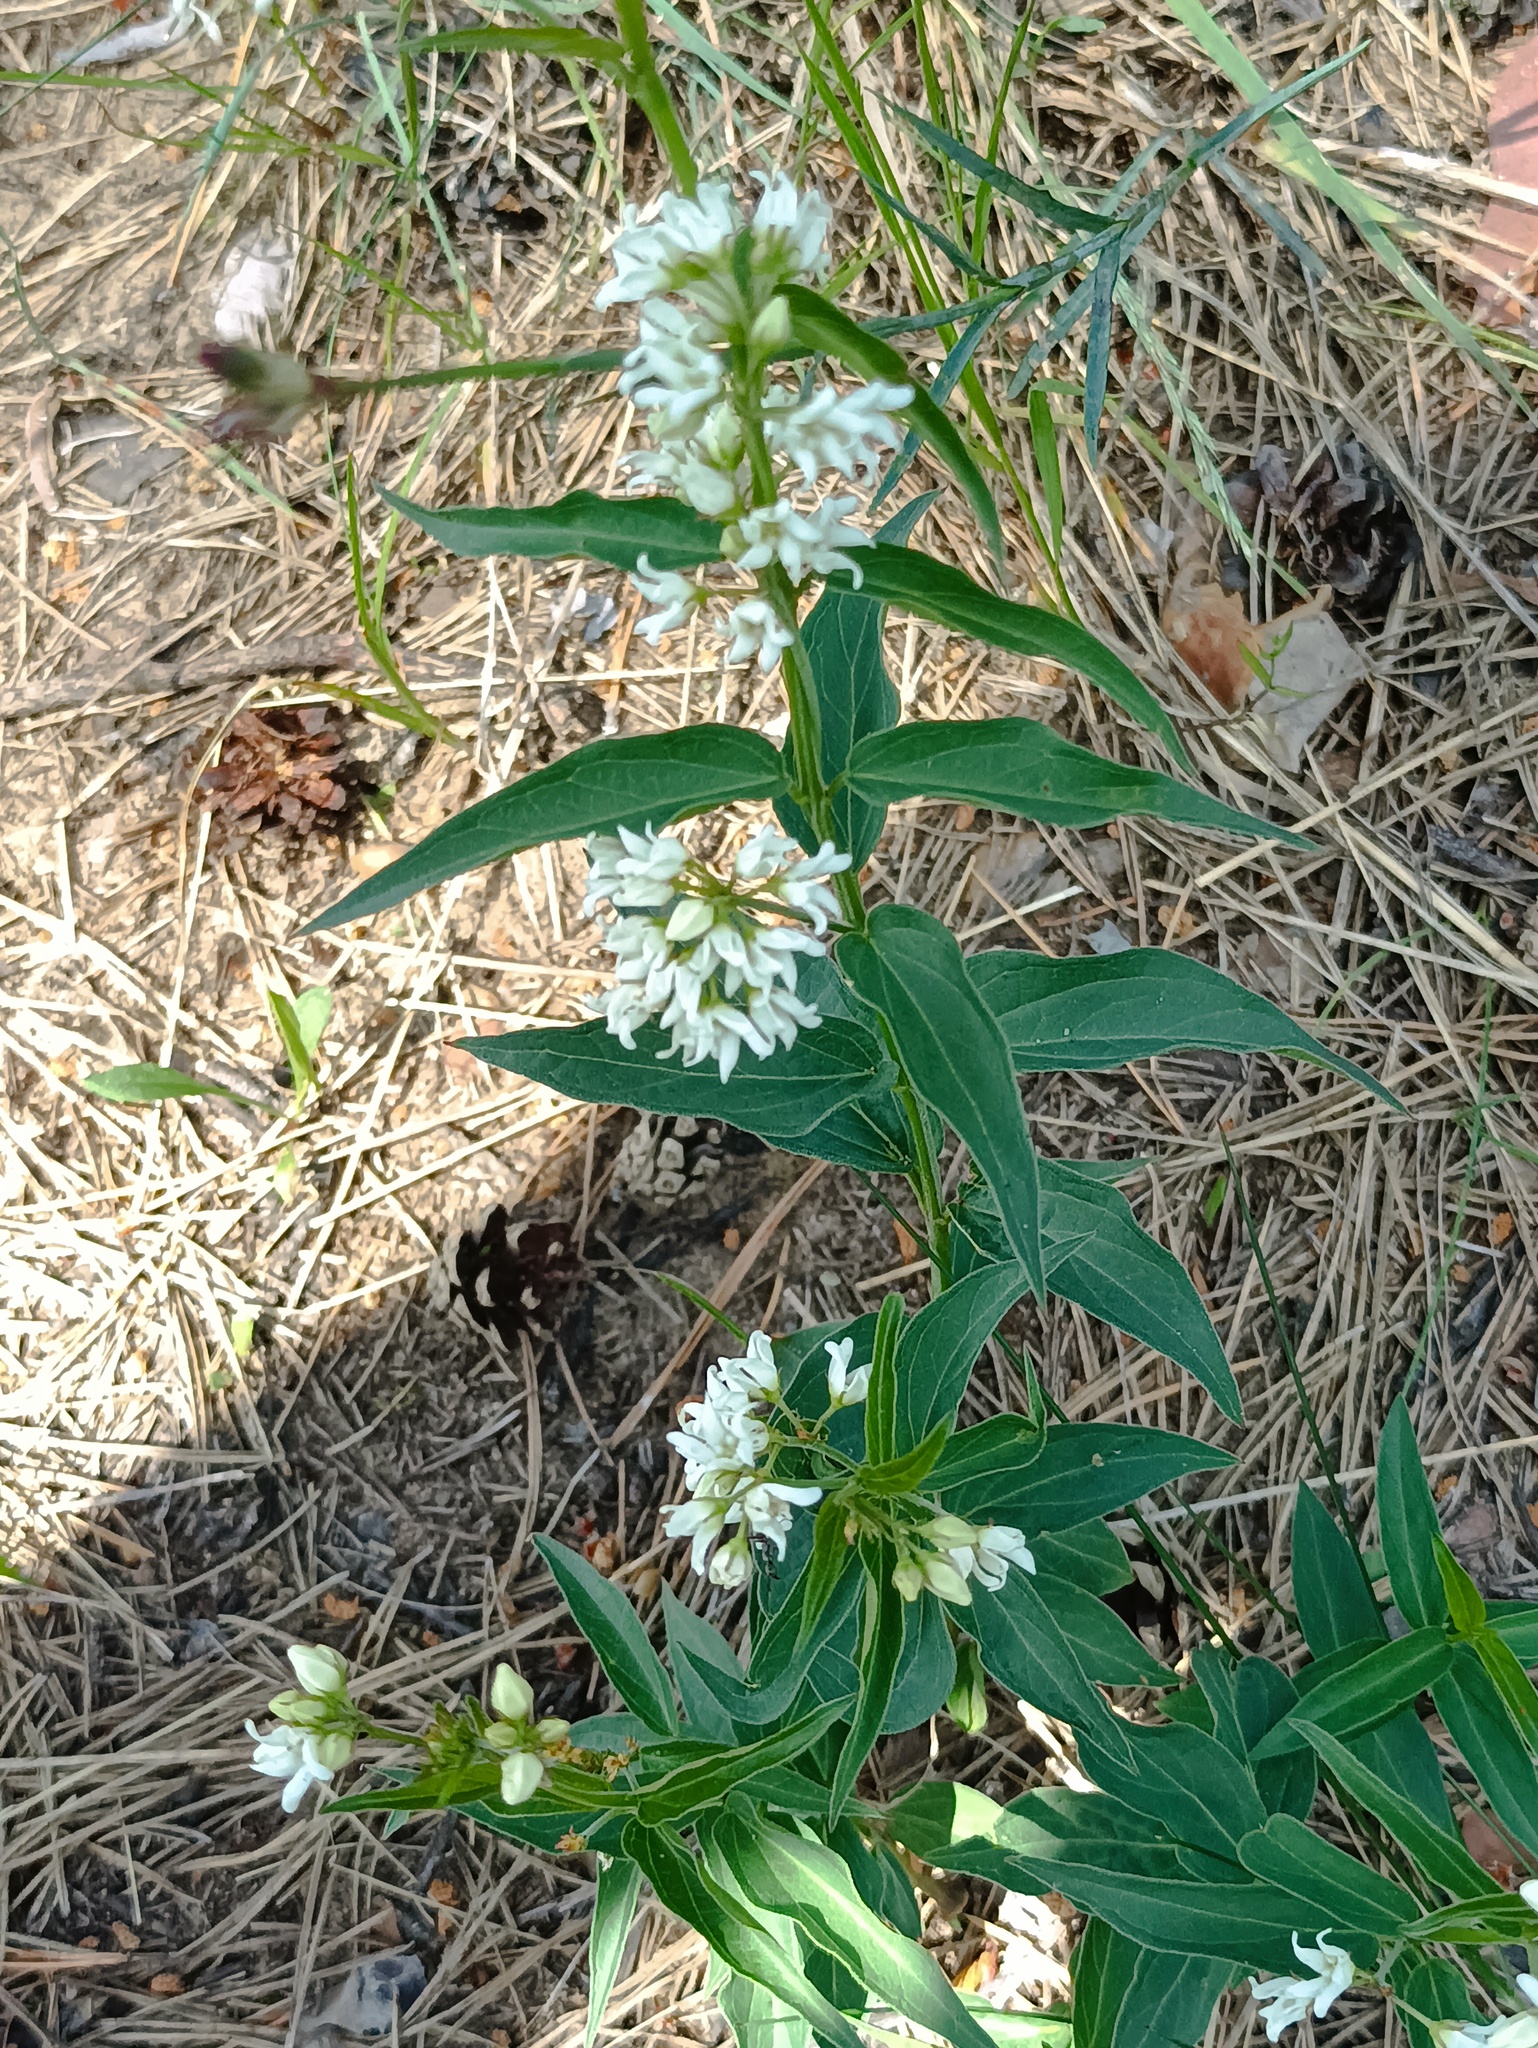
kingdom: Plantae
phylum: Tracheophyta
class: Magnoliopsida
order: Gentianales
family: Apocynaceae
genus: Vincetoxicum
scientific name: Vincetoxicum hirundinaria
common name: White swallowwort
